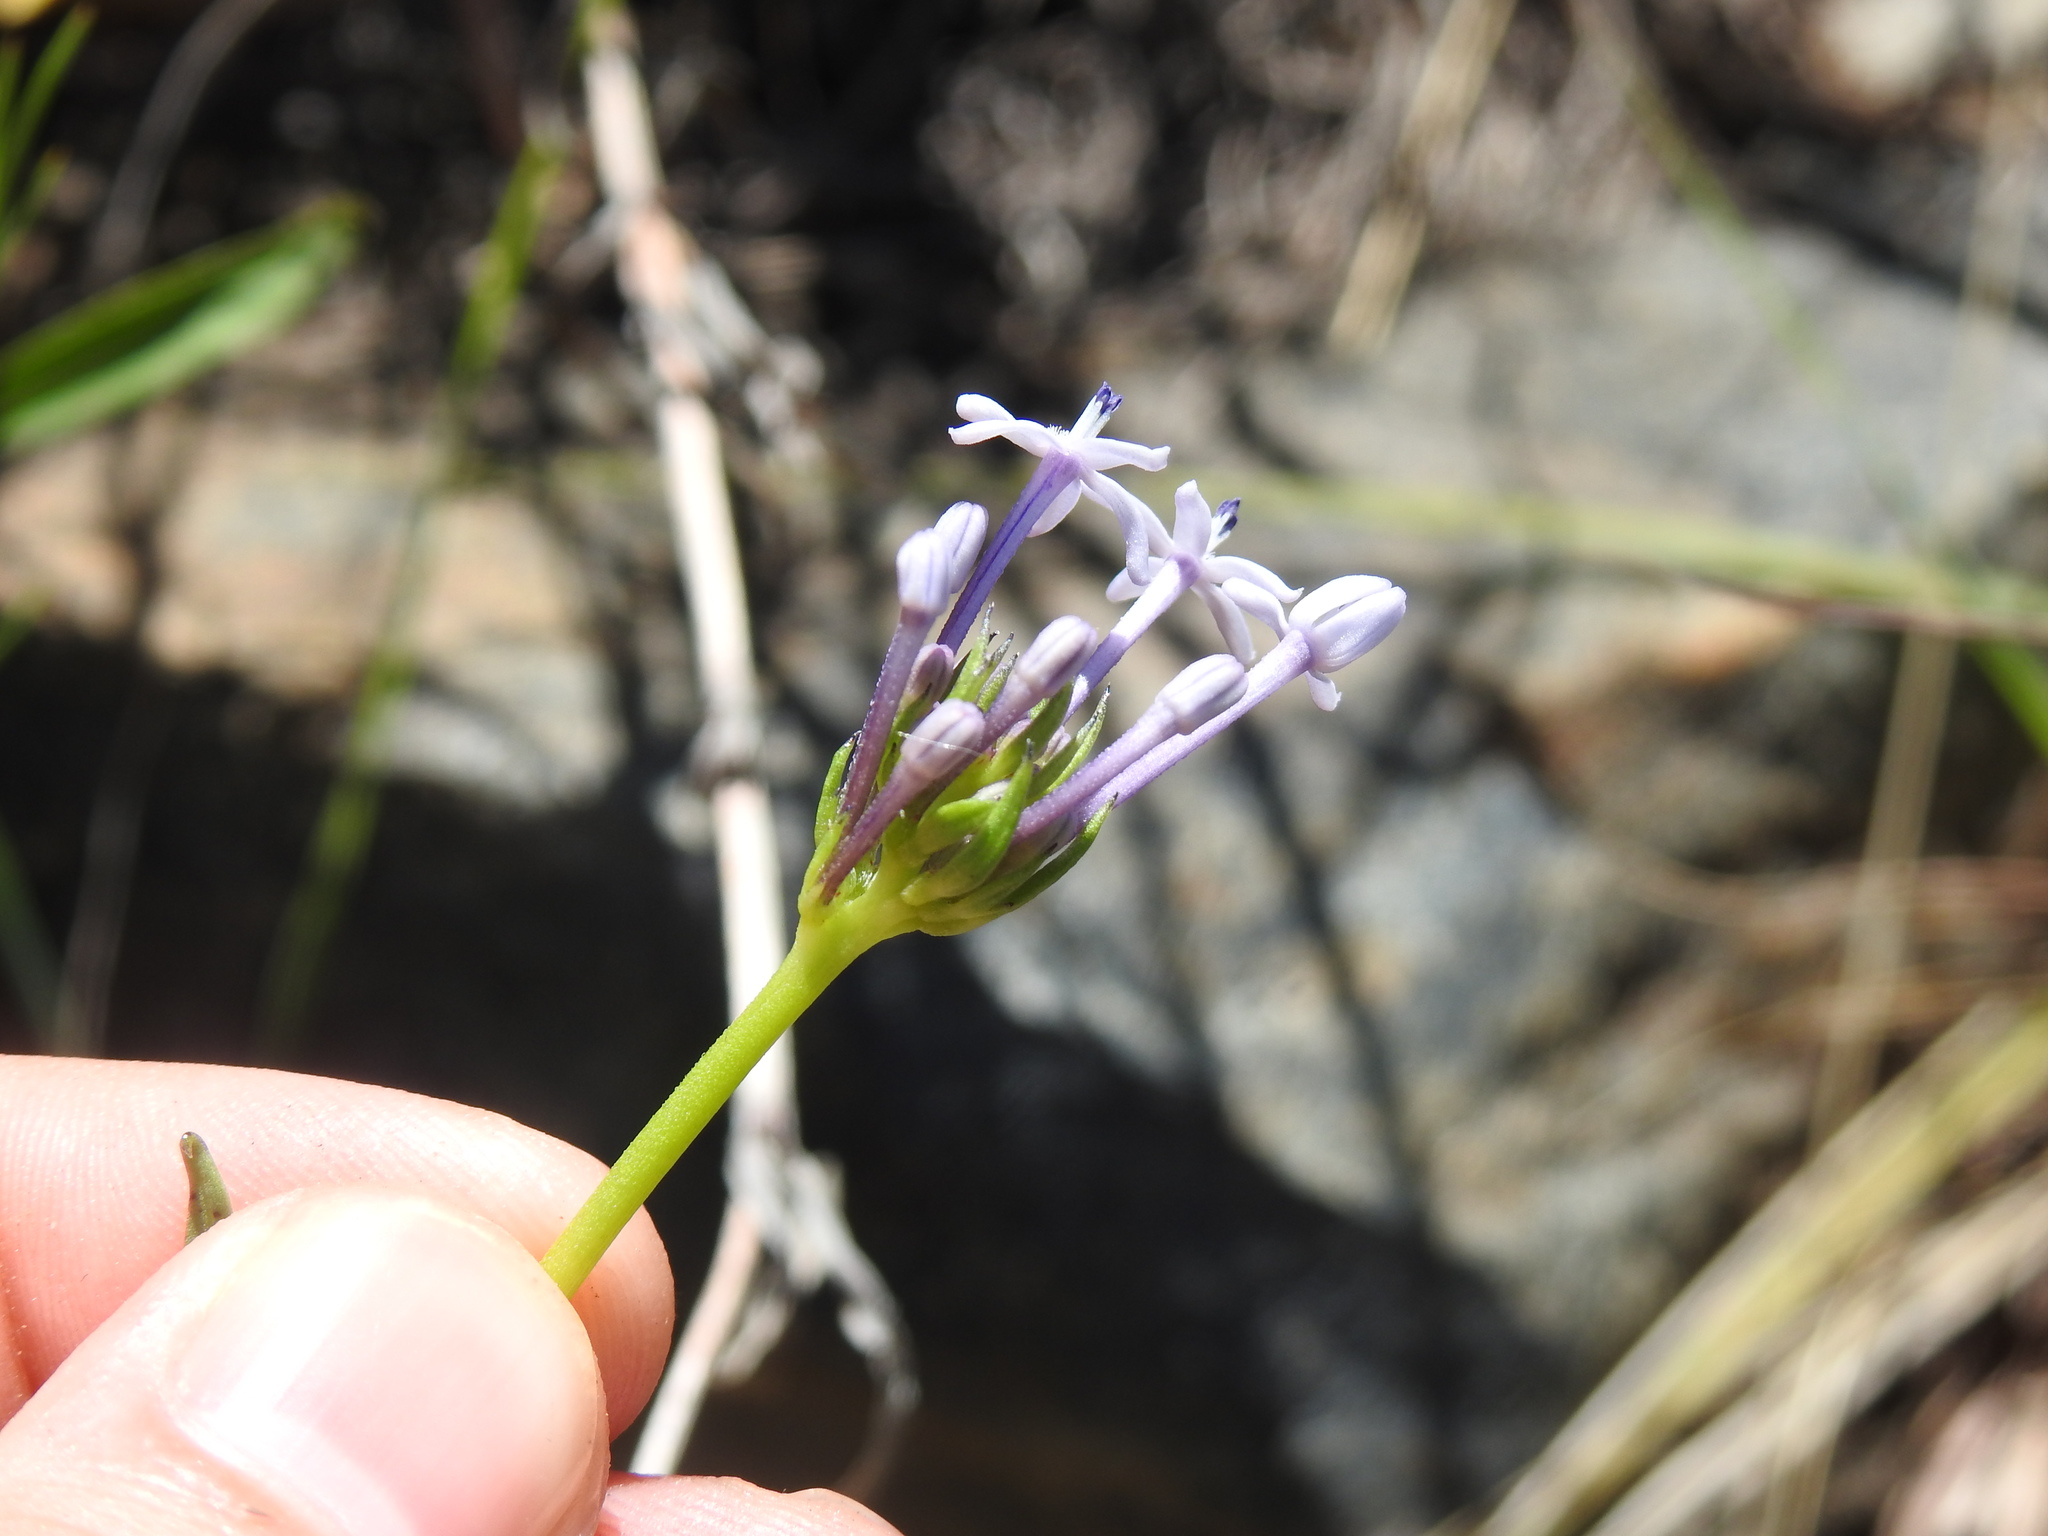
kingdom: Plantae
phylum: Tracheophyta
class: Magnoliopsida
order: Gentianales
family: Rubiaceae
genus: Pentanisia
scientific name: Pentanisia angustifolia
